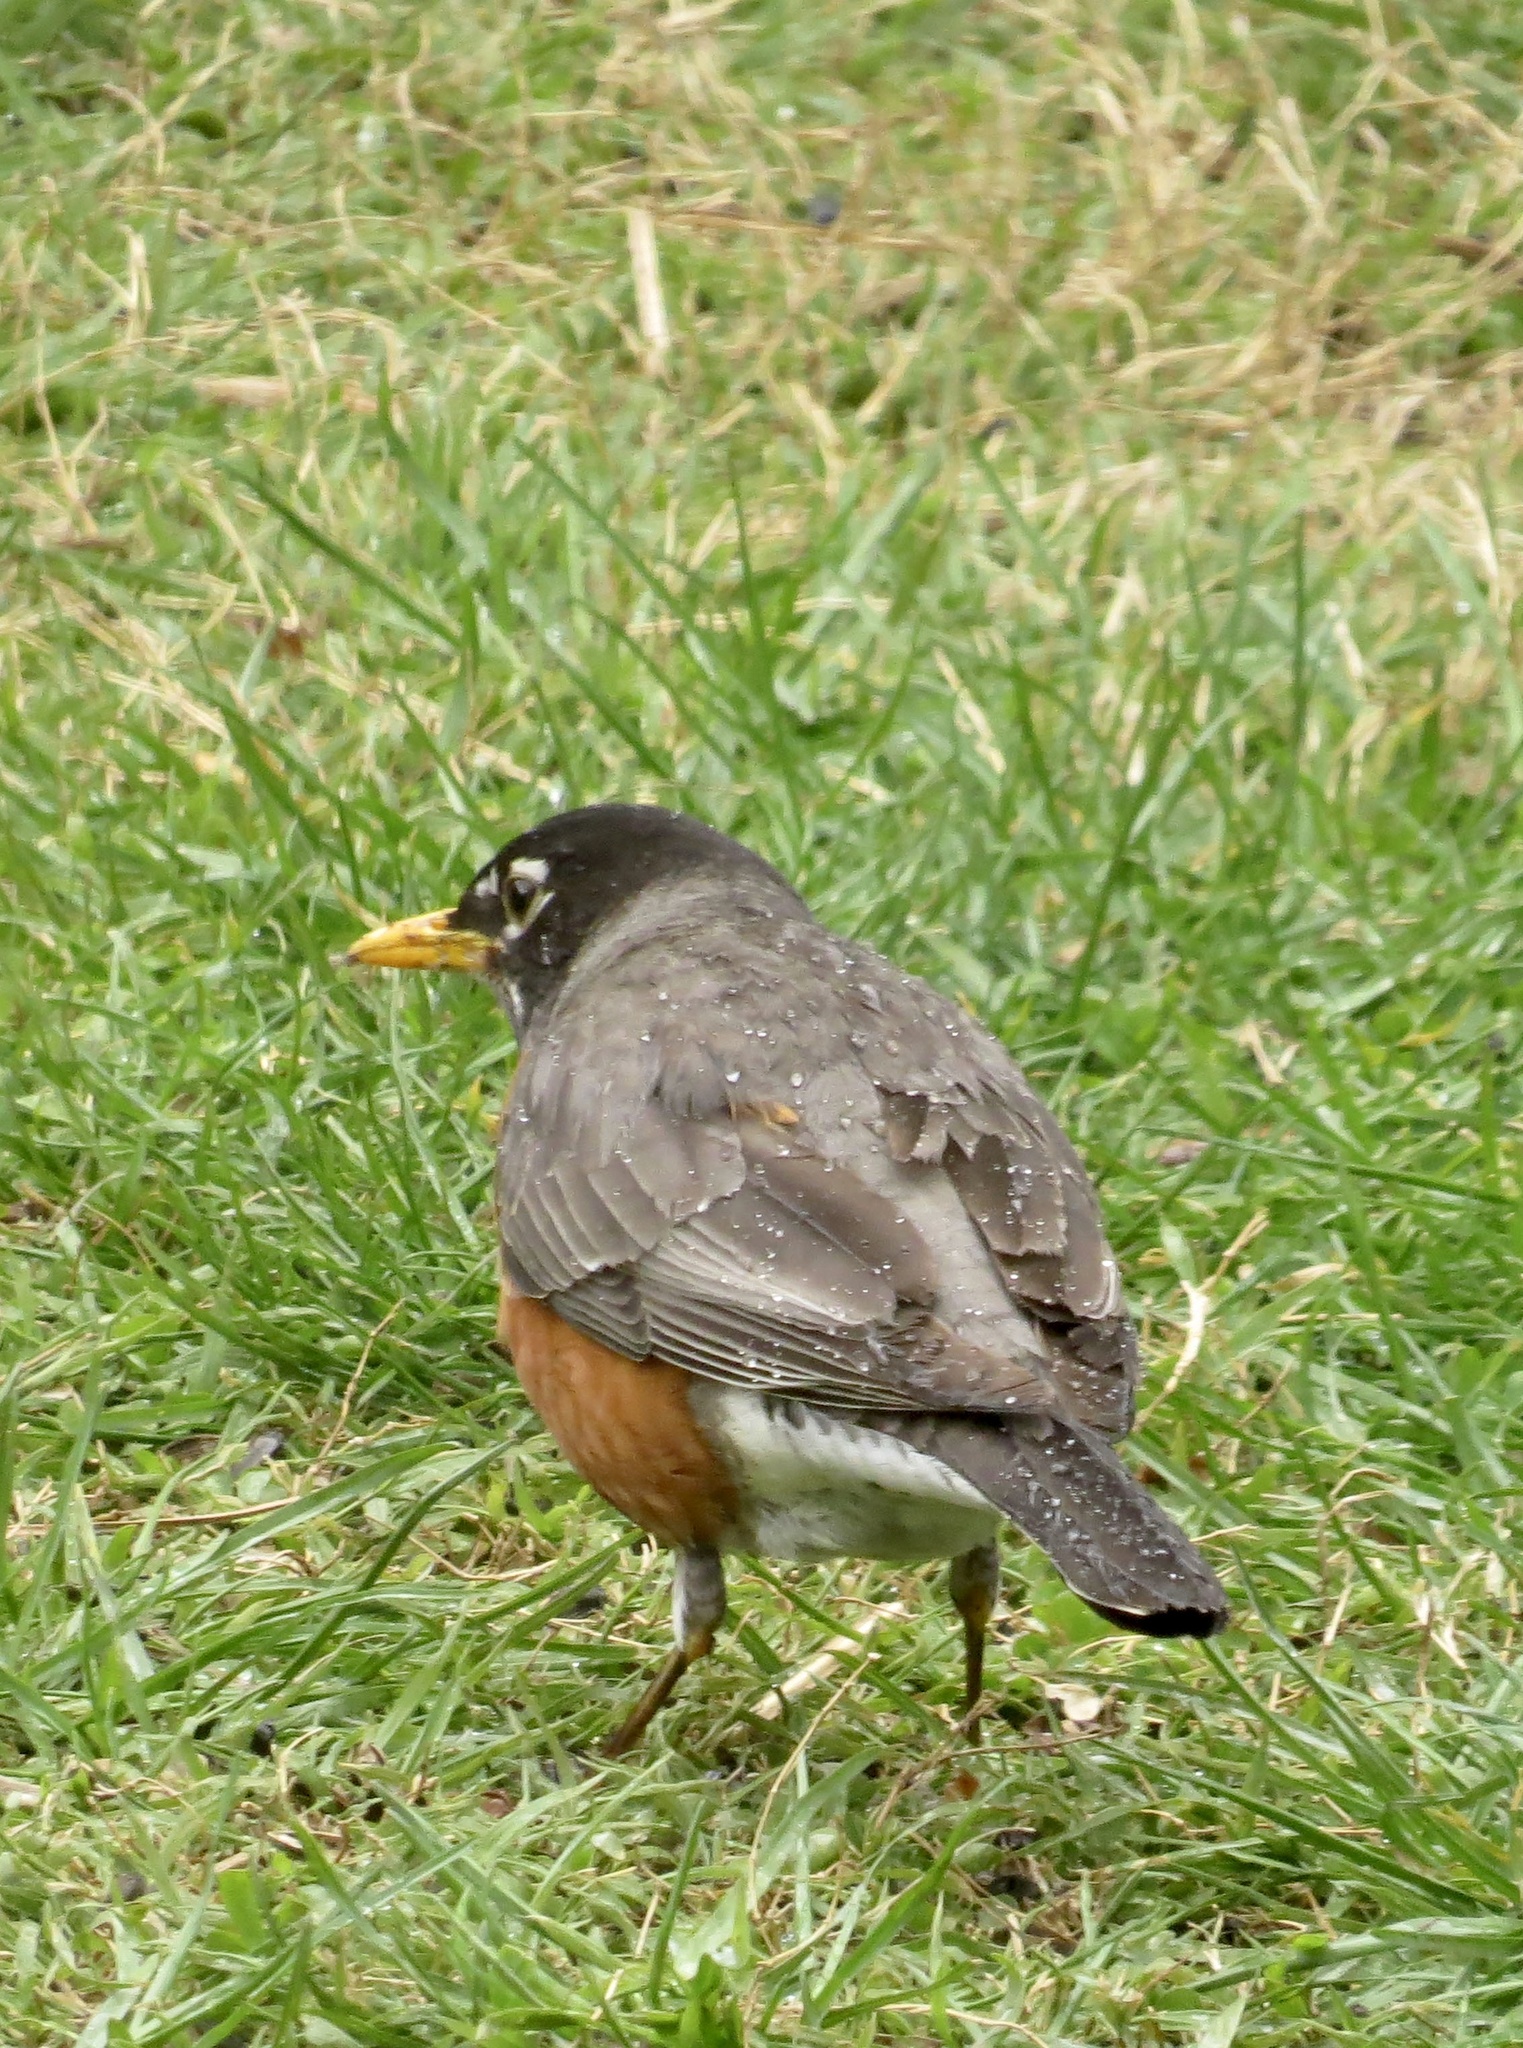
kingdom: Animalia
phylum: Chordata
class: Aves
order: Passeriformes
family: Turdidae
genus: Turdus
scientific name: Turdus migratorius
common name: American robin
